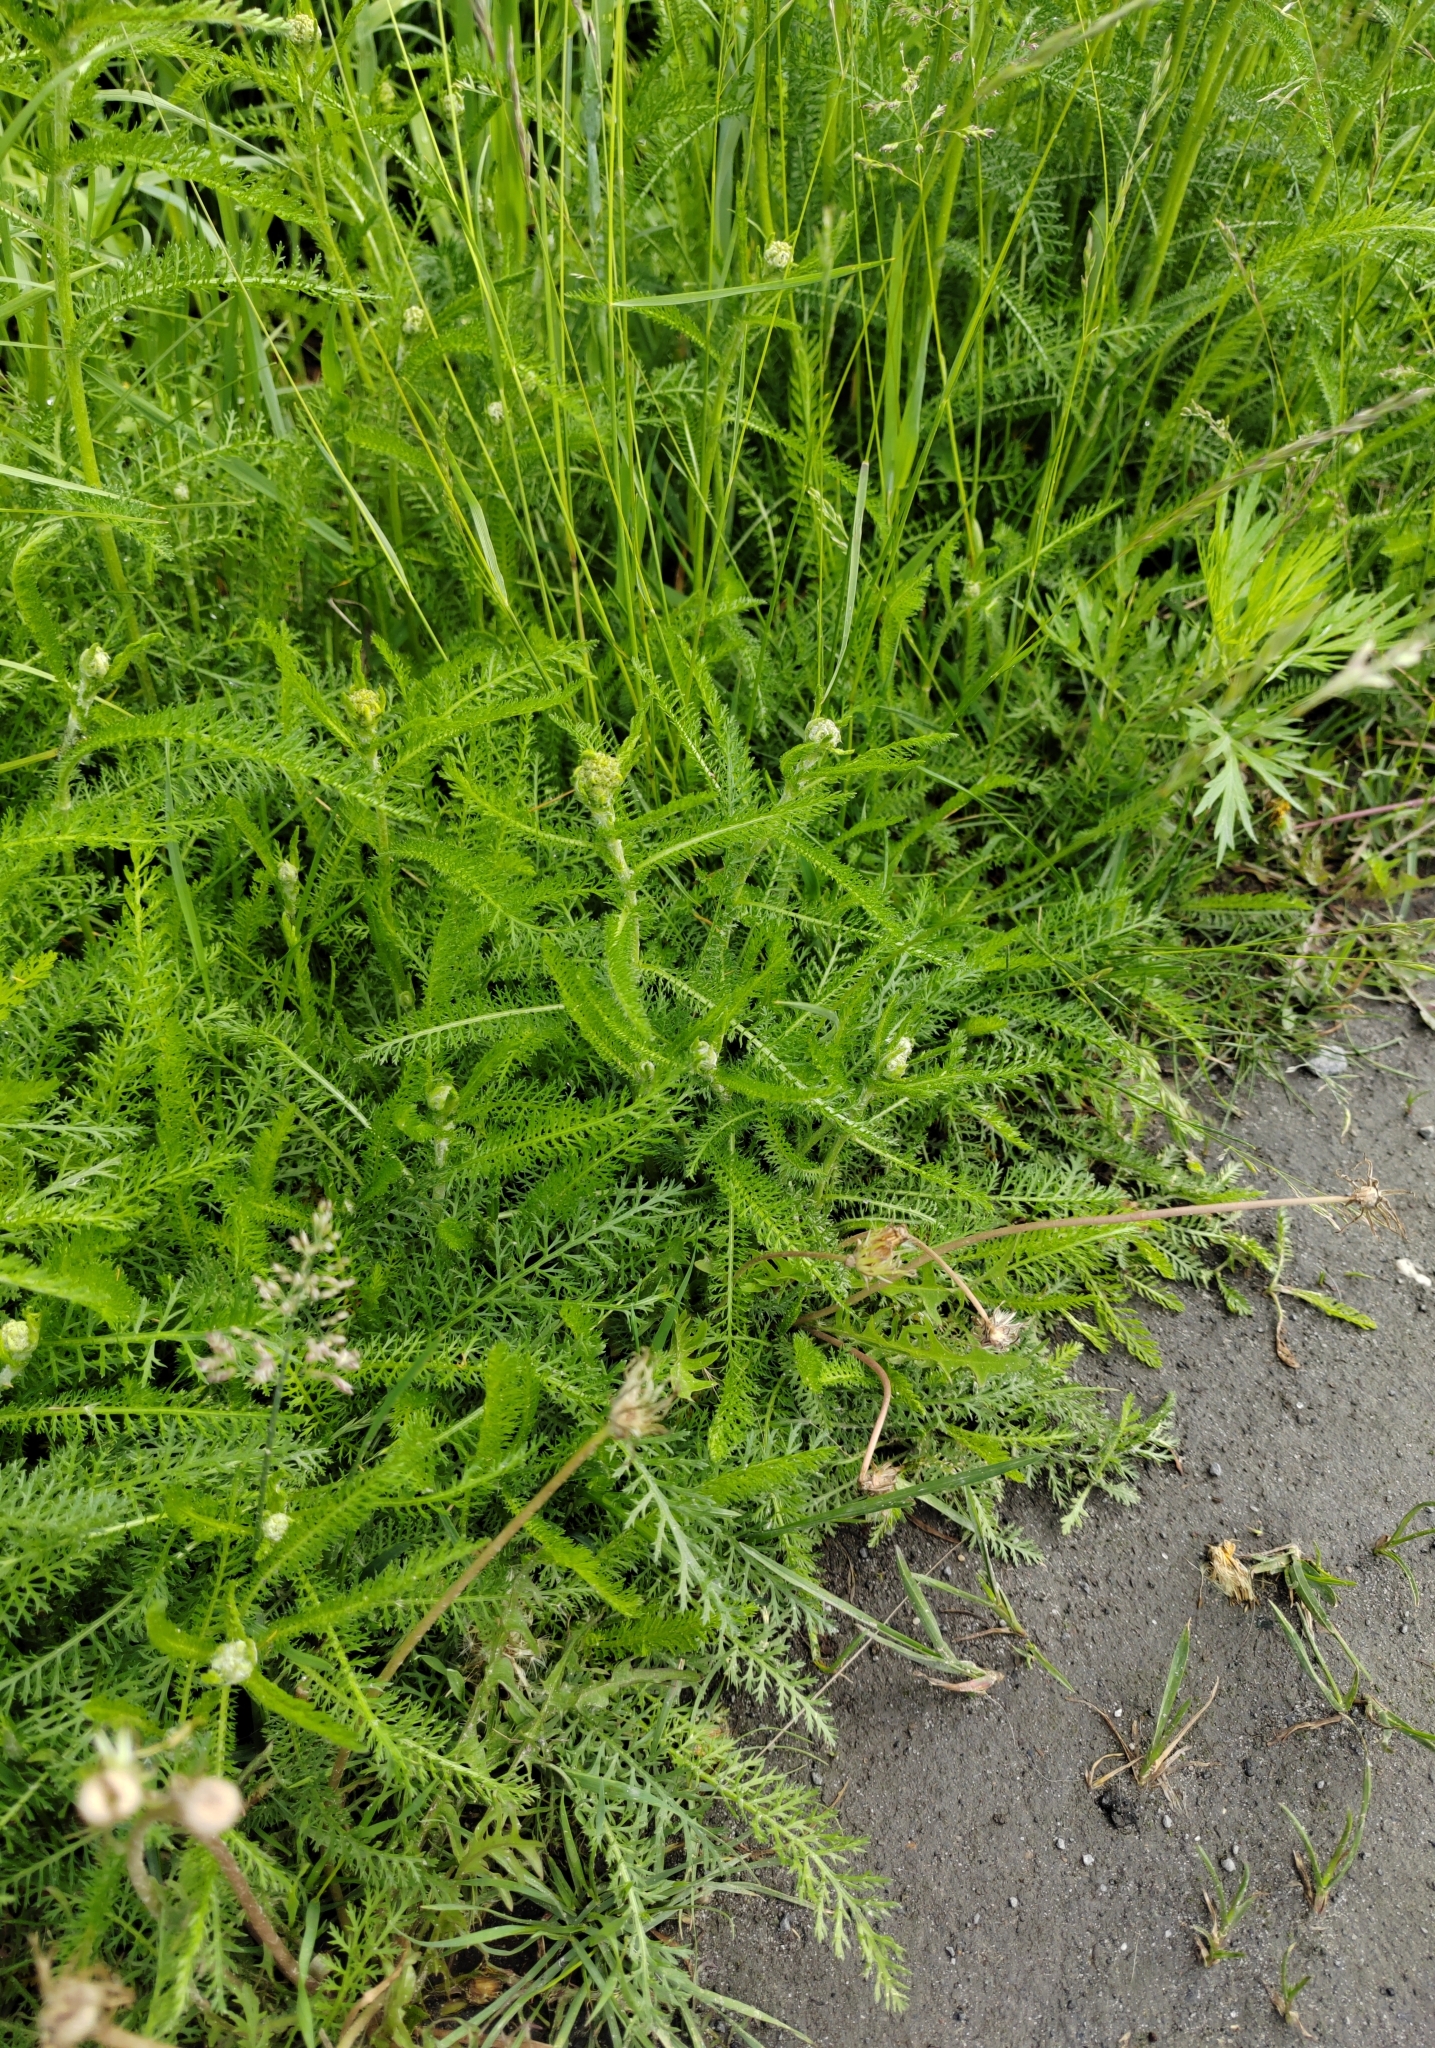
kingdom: Plantae
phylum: Tracheophyta
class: Magnoliopsida
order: Asterales
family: Asteraceae
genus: Achillea
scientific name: Achillea millefolium
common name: Yarrow
